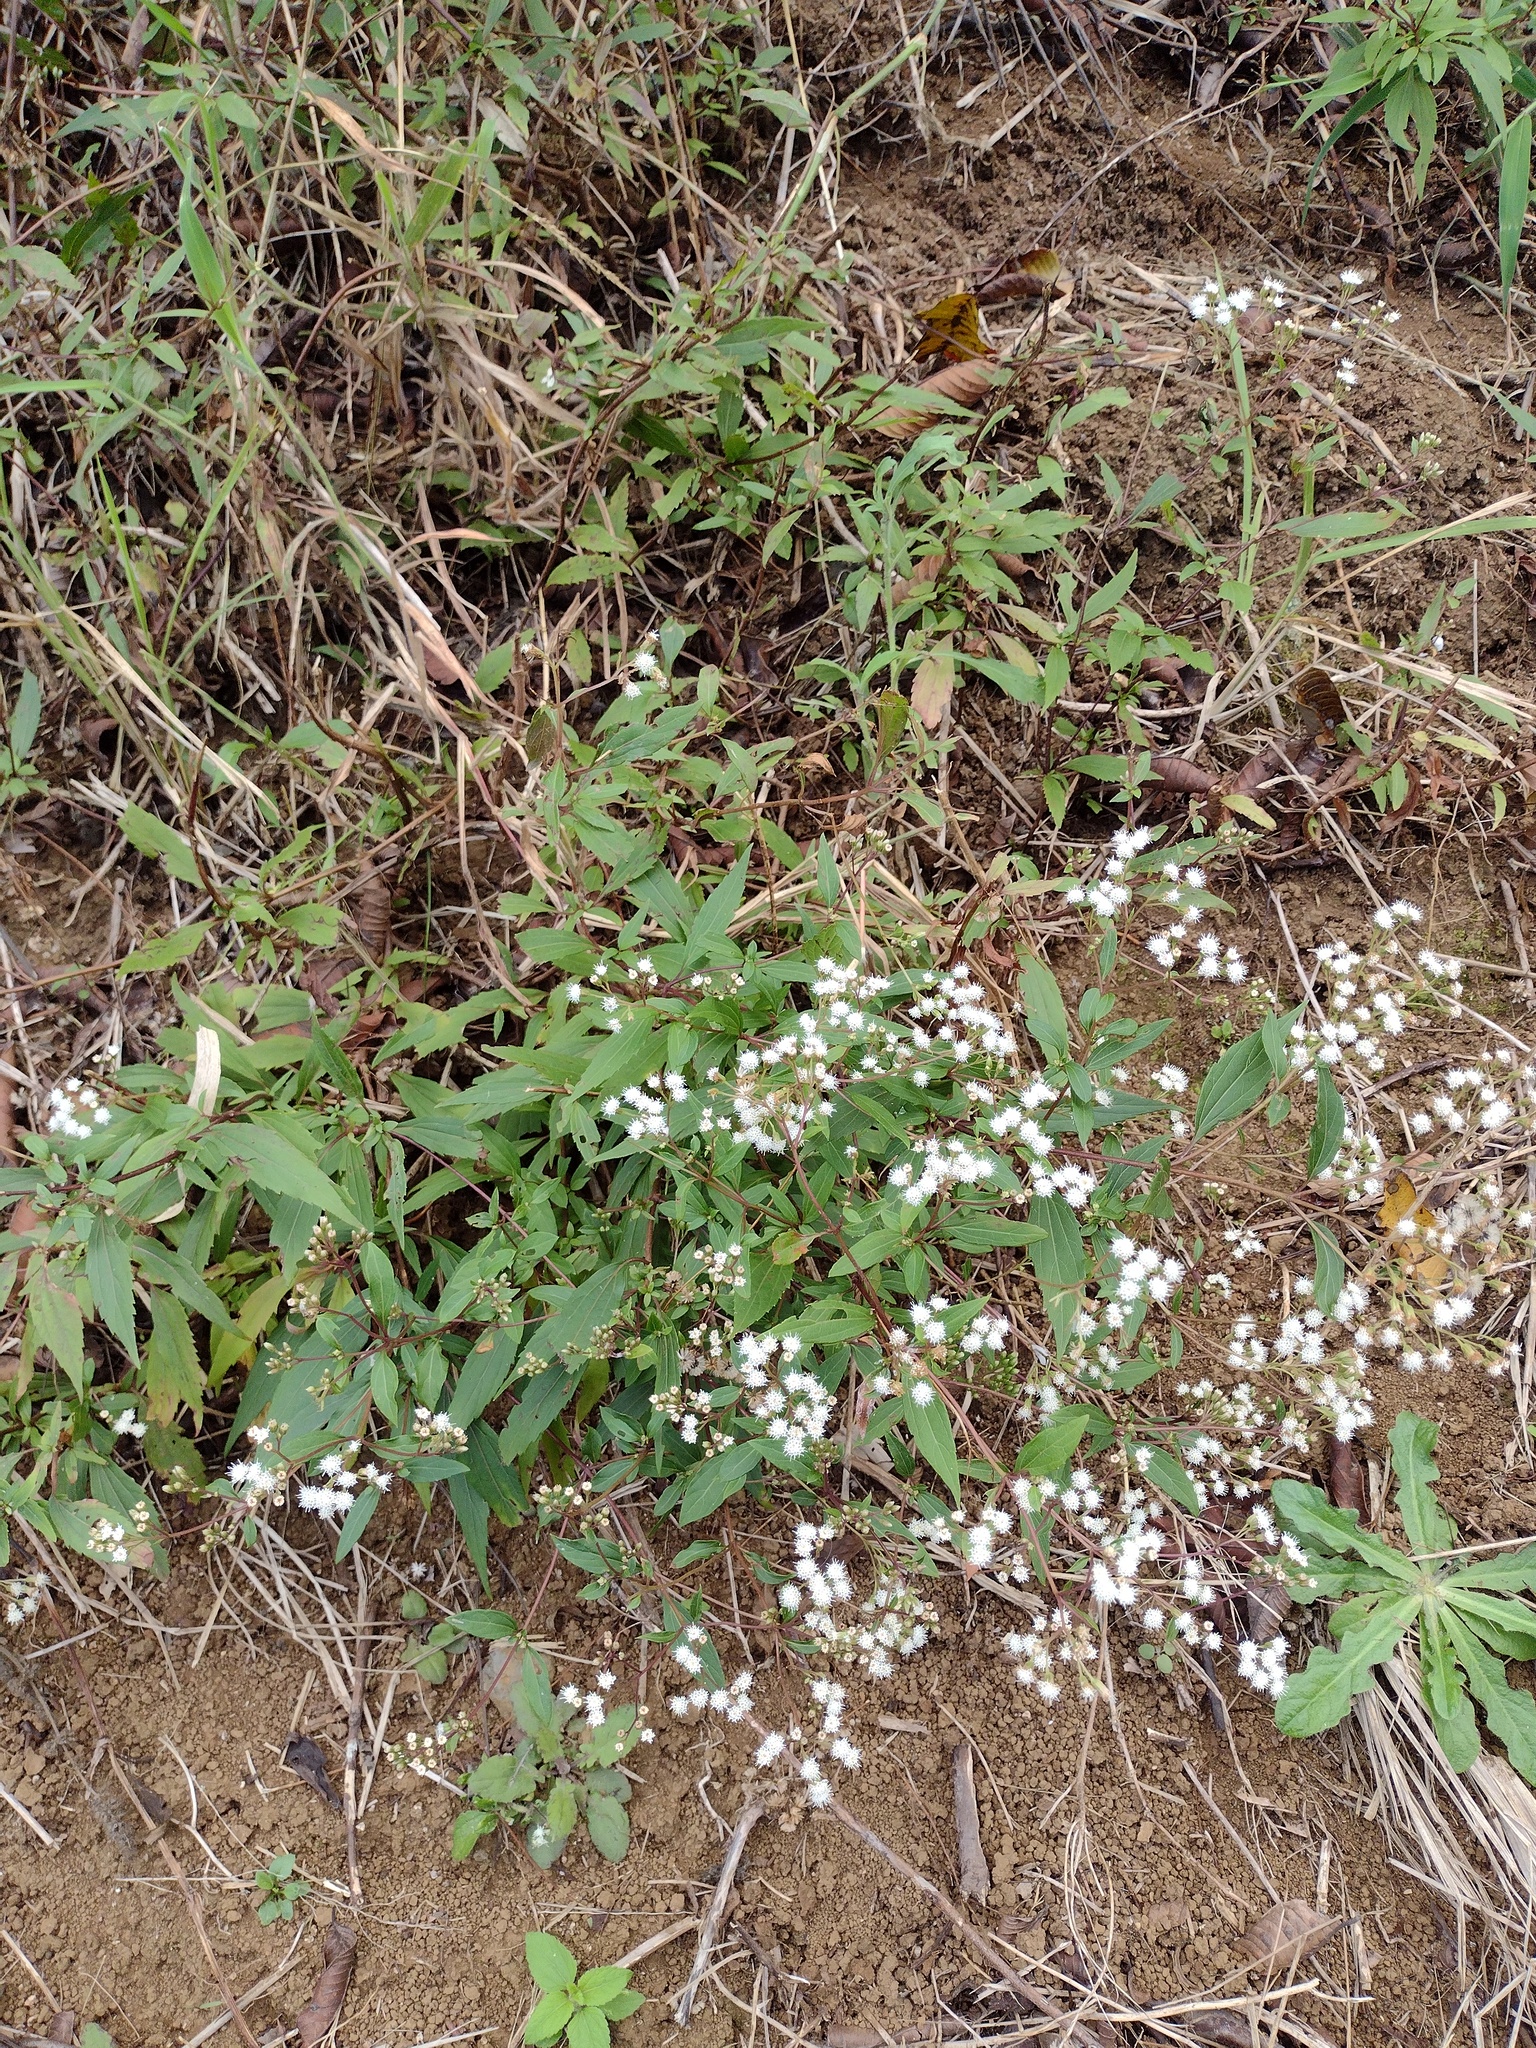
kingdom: Plantae
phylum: Tracheophyta
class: Magnoliopsida
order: Asterales
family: Asteraceae
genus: Ageratina
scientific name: Ageratina riparia
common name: Creeping croftonweed
